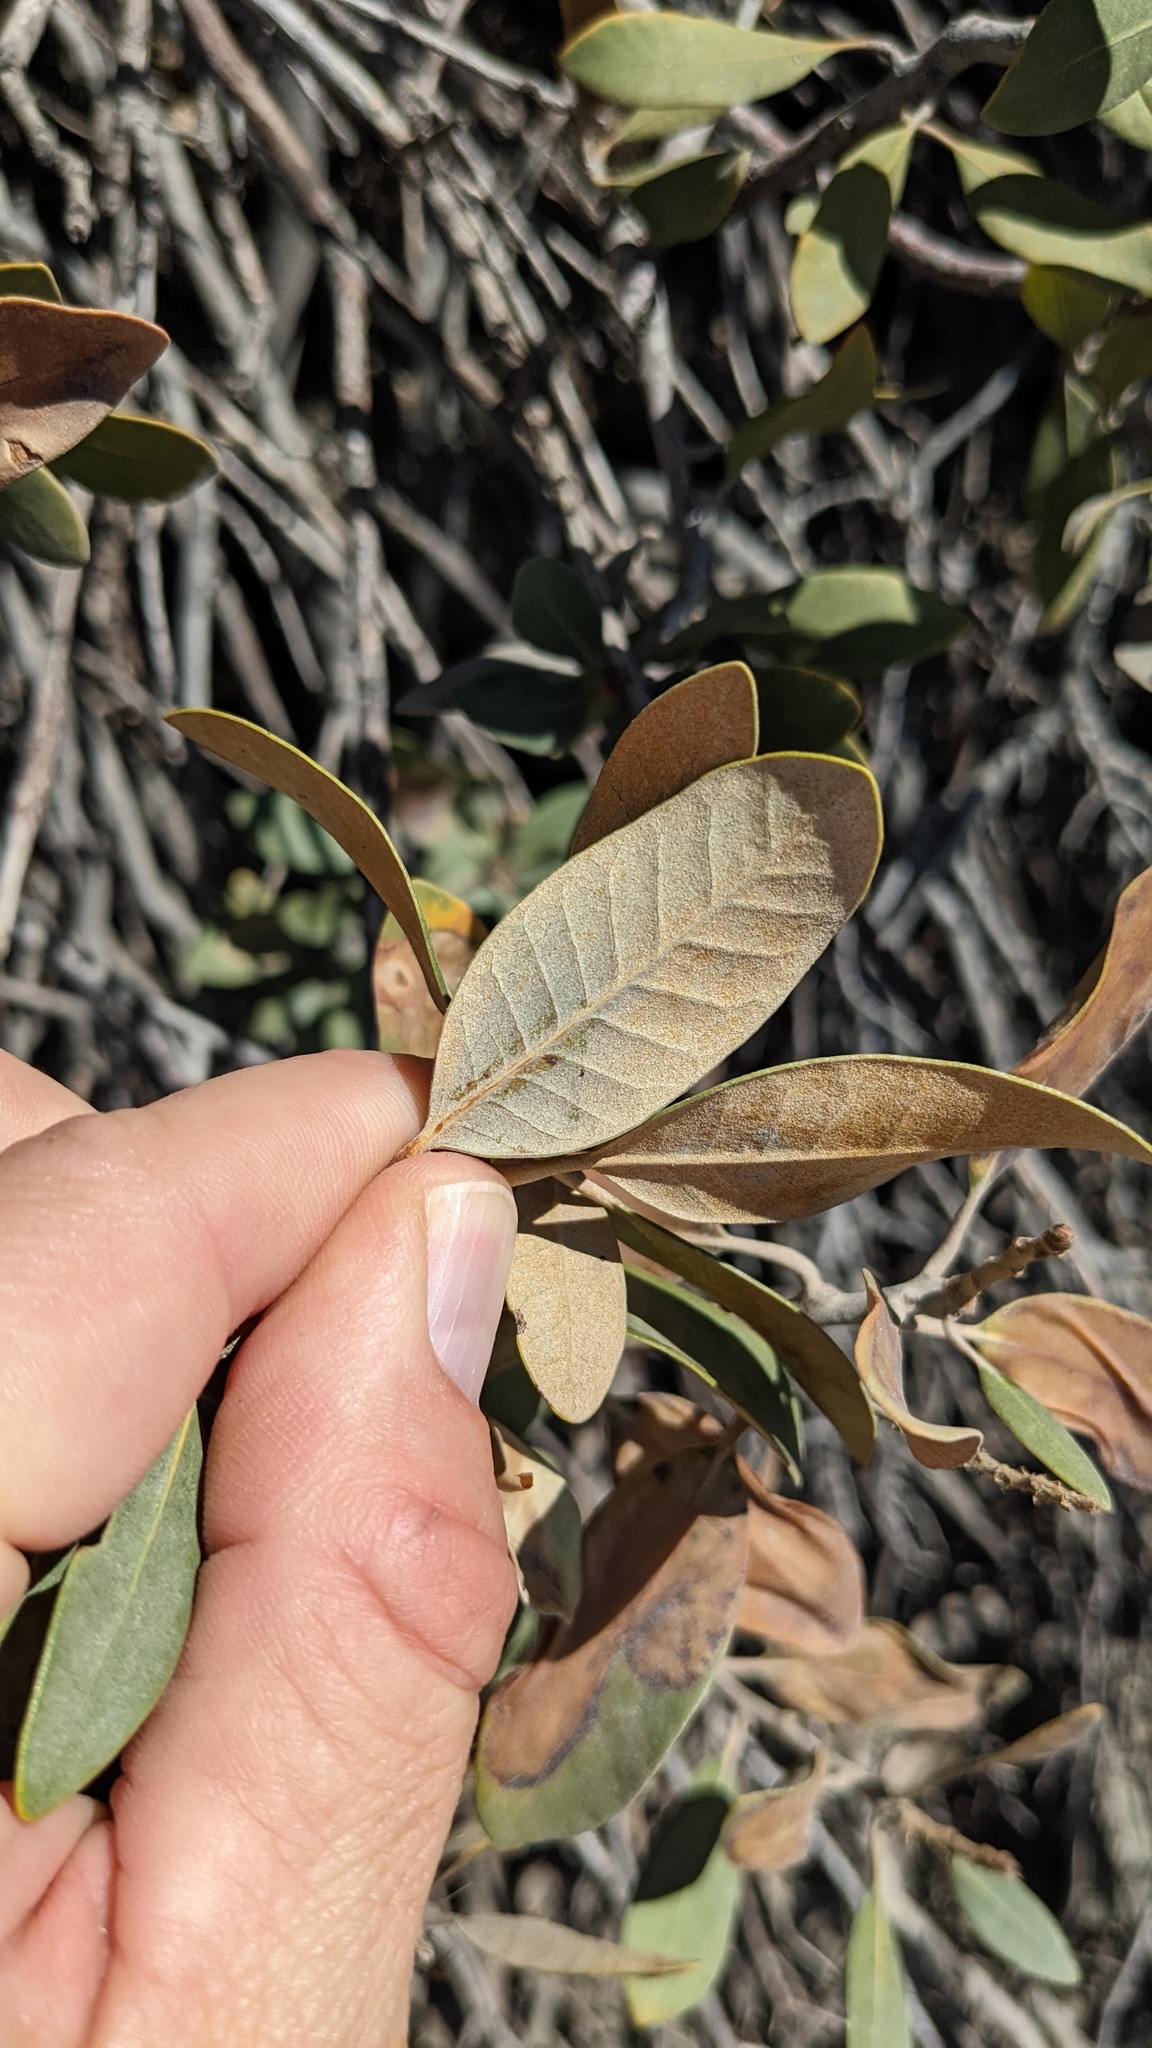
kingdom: Plantae
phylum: Tracheophyta
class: Magnoliopsida
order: Fagales
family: Fagaceae
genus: Chrysolepis
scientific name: Chrysolepis sempervirens
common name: Bush chinquapin
